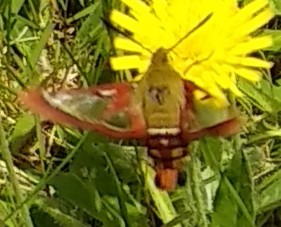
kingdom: Animalia
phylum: Arthropoda
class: Insecta
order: Lepidoptera
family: Sphingidae
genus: Hemaris
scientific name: Hemaris gracilis
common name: Graceful clearwing
